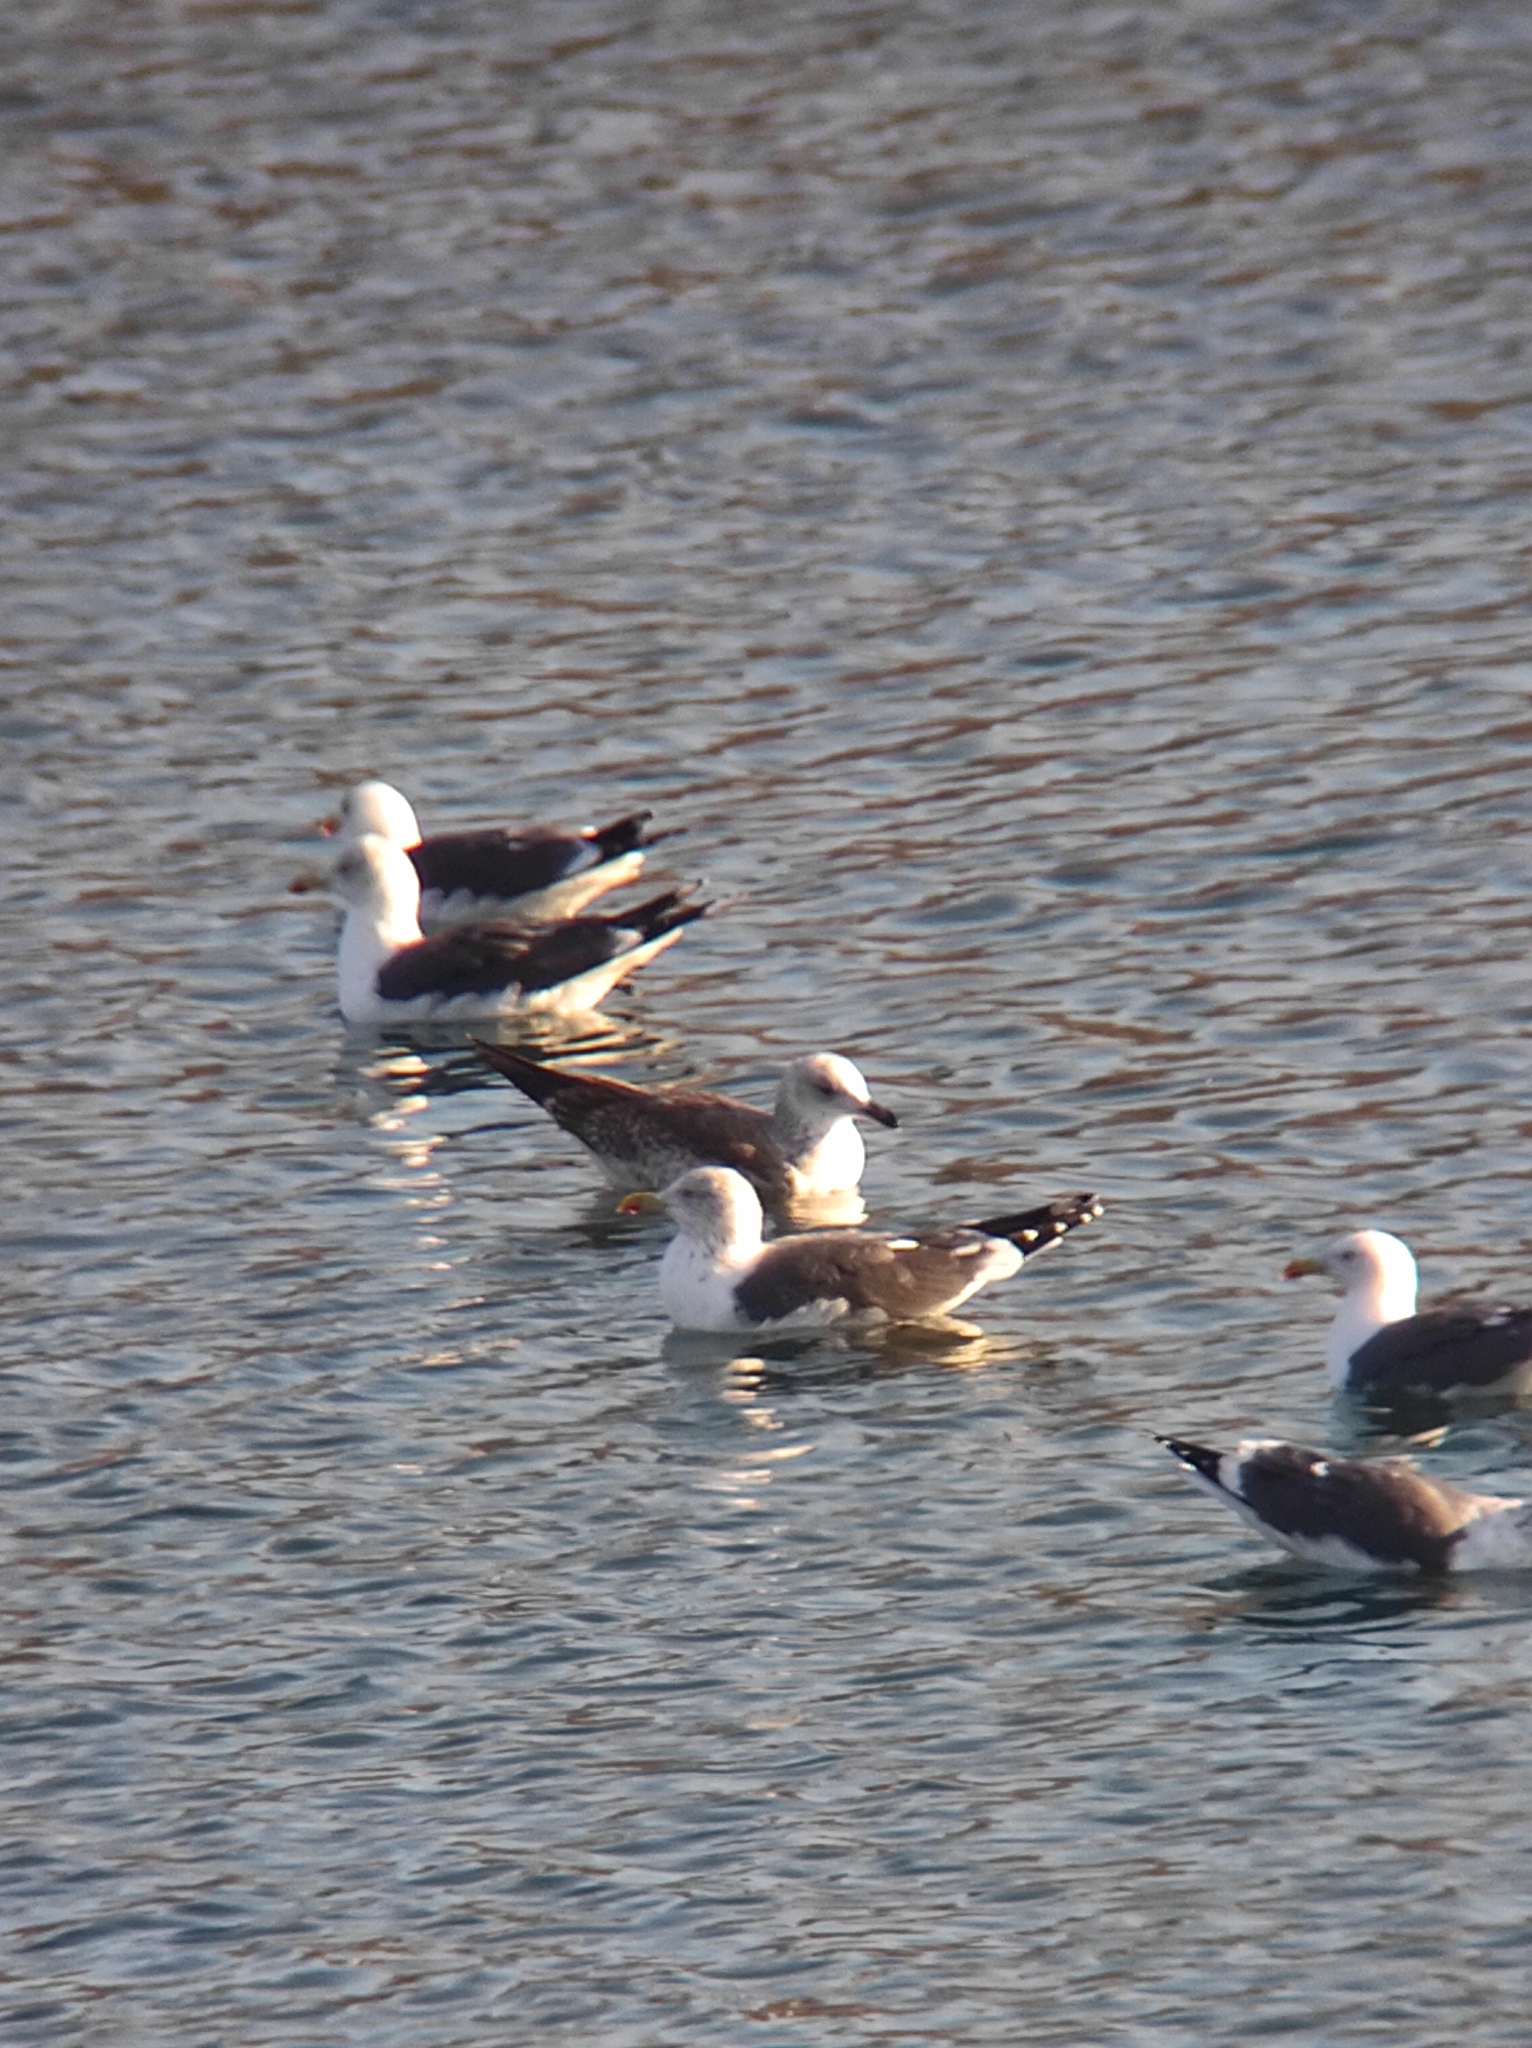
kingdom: Animalia
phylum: Chordata
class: Aves
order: Charadriiformes
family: Laridae
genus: Larus
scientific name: Larus fuscus
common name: Lesser black-backed gull
